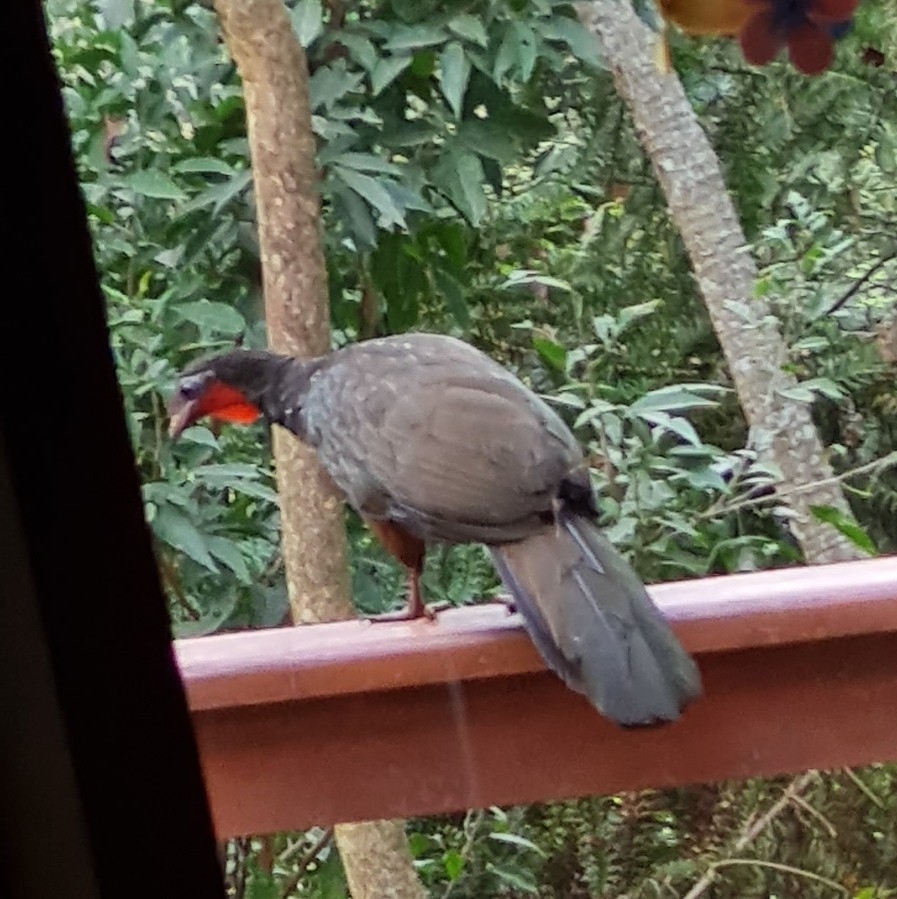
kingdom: Animalia
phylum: Chordata
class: Aves
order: Galliformes
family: Cracidae
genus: Penelope
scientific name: Penelope obscura
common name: Dusky-legged guan
